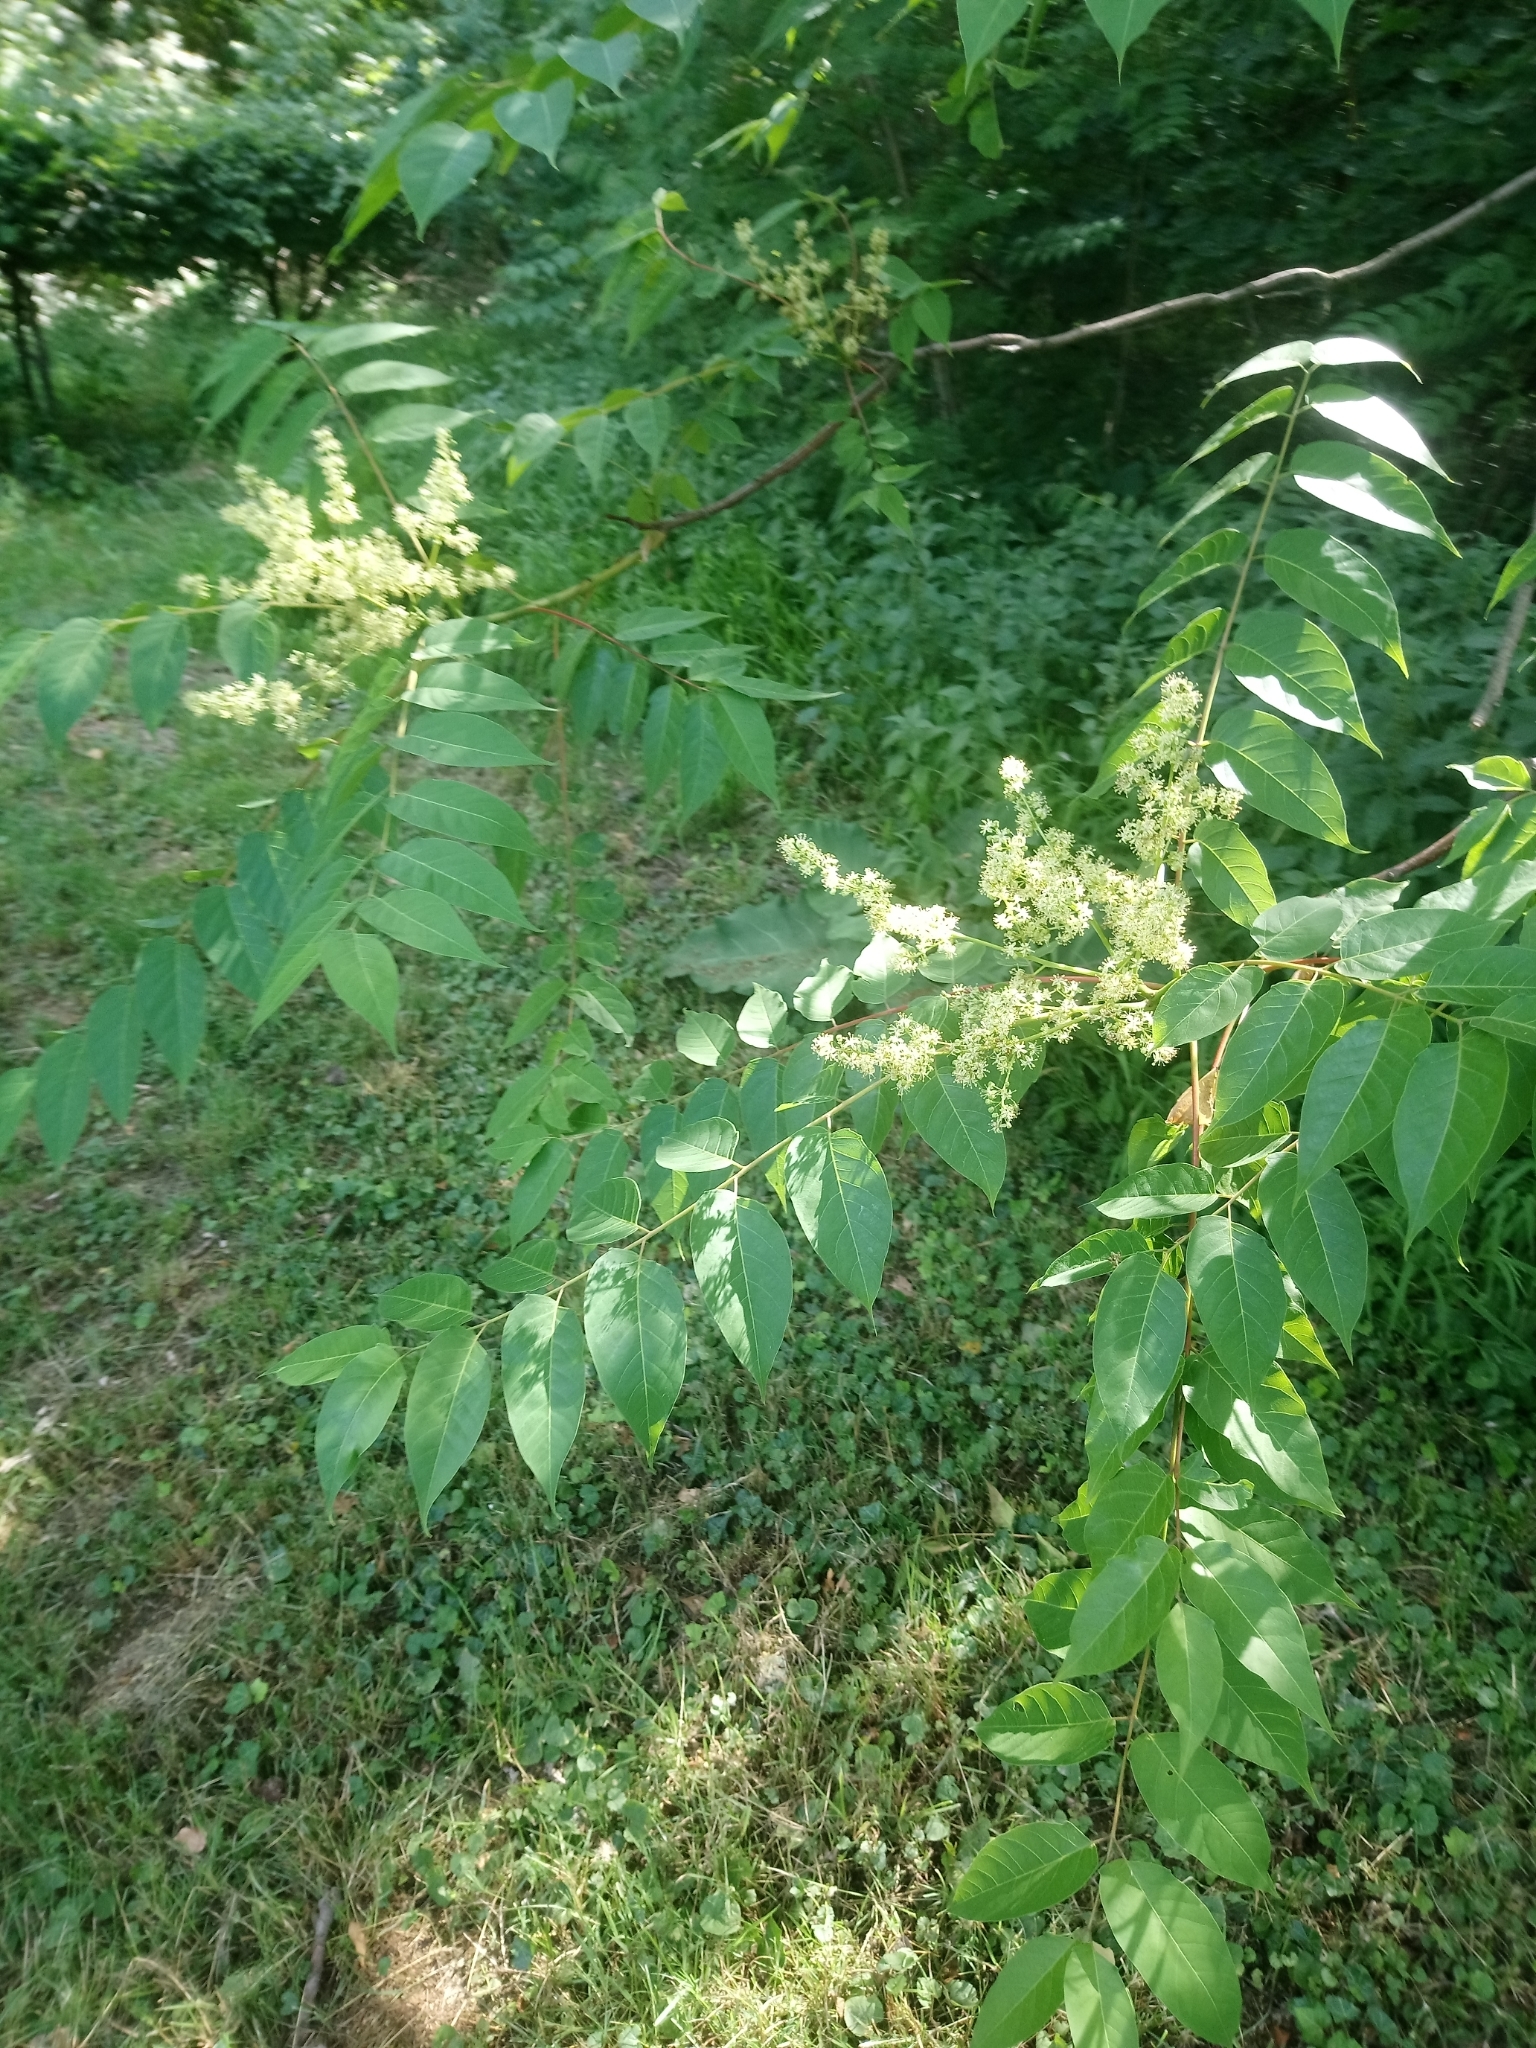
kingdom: Plantae
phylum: Tracheophyta
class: Magnoliopsida
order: Sapindales
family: Simaroubaceae
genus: Ailanthus
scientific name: Ailanthus altissima
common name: Tree-of-heaven
